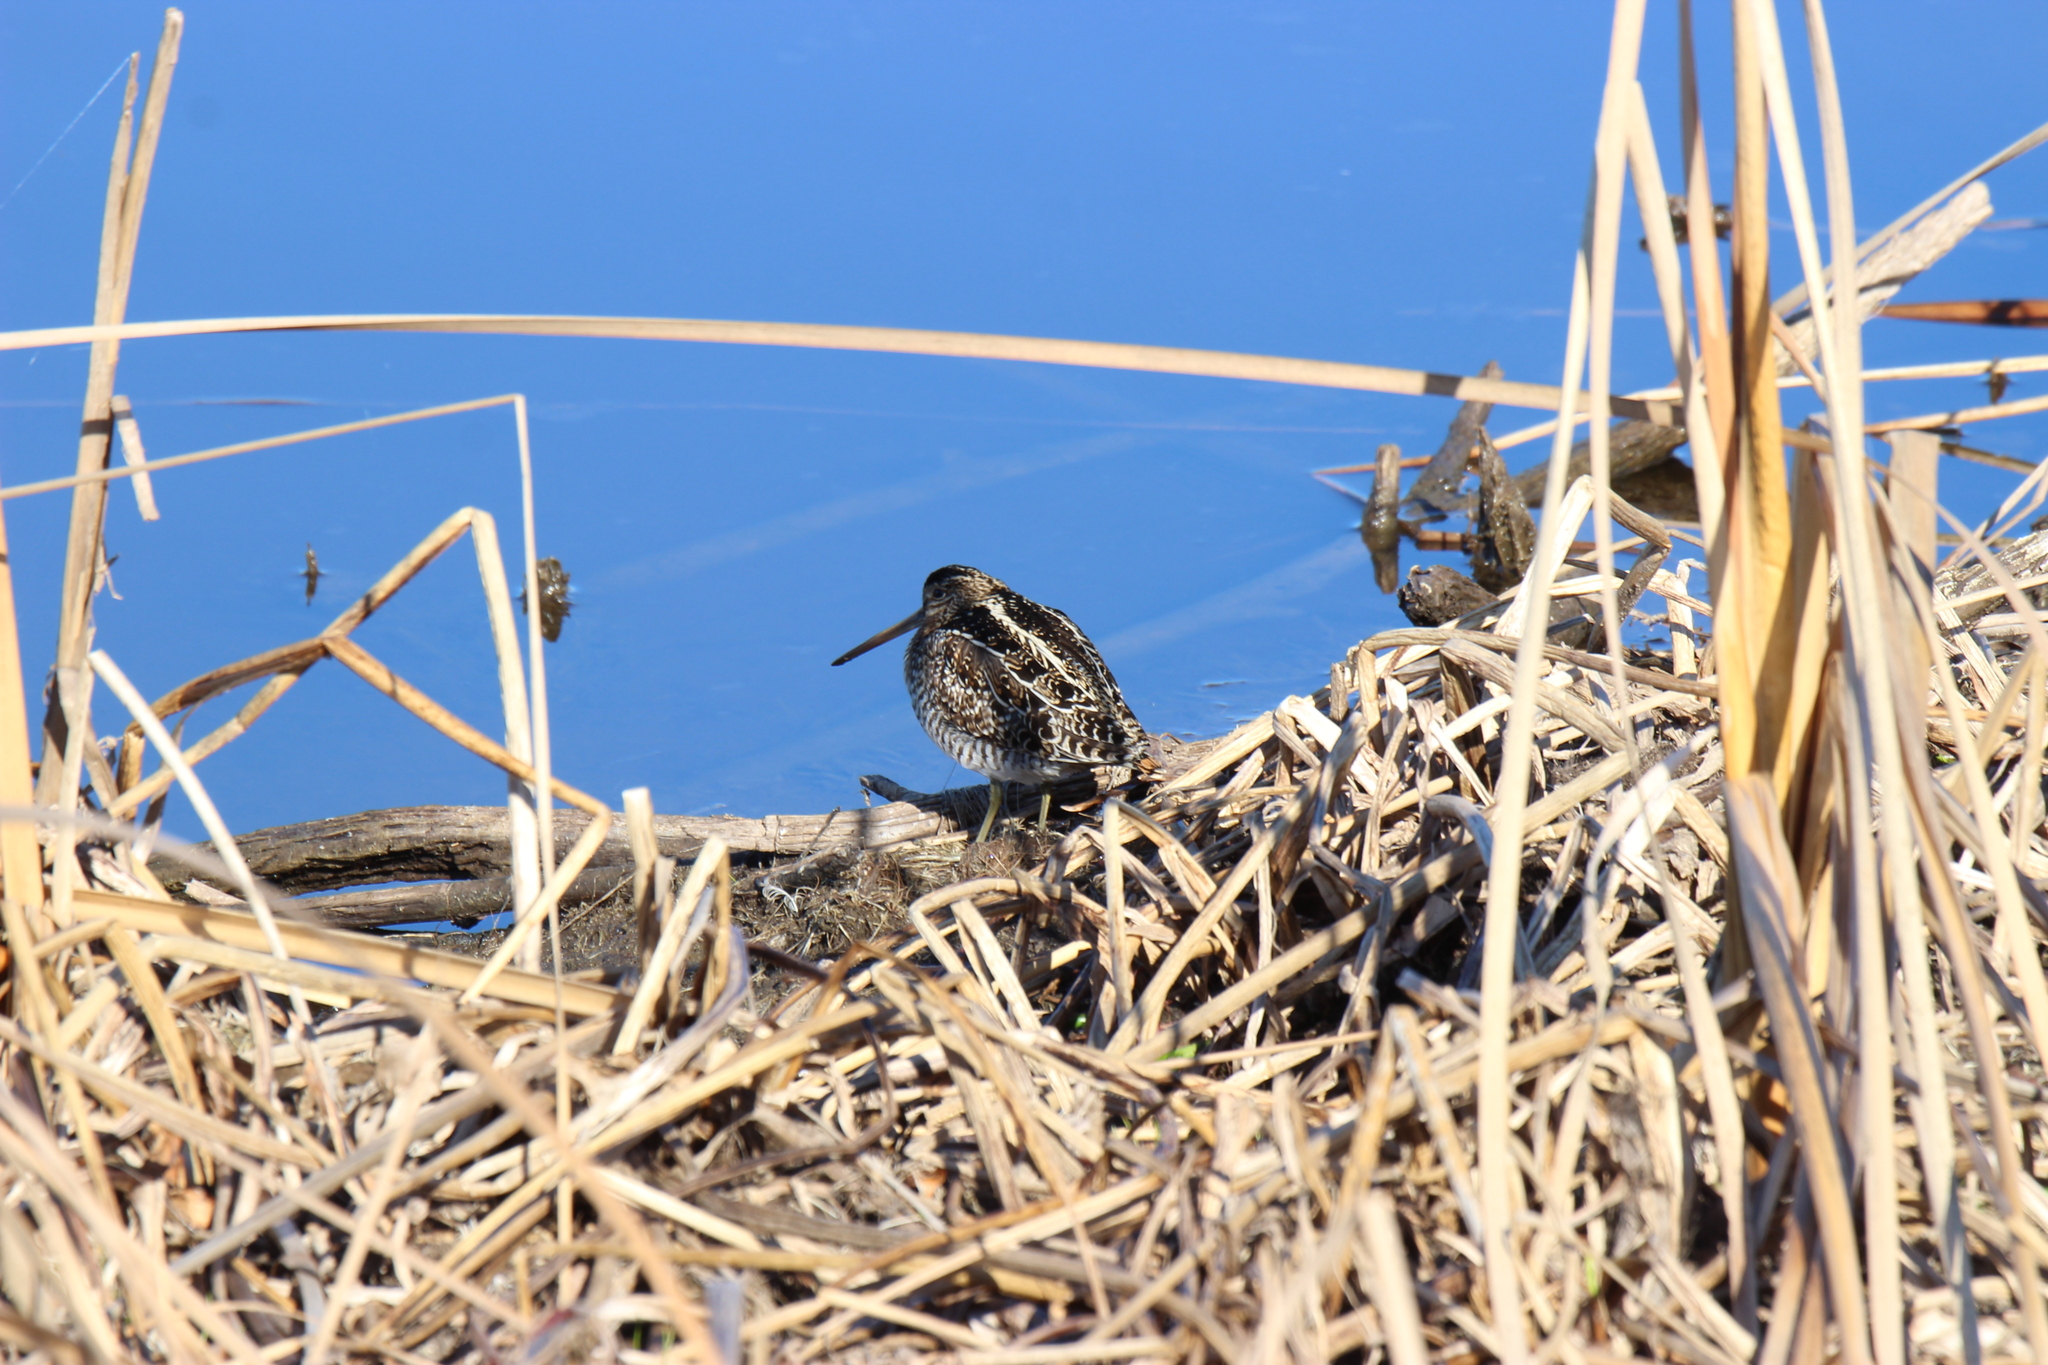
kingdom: Animalia
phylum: Chordata
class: Aves
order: Charadriiformes
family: Scolopacidae
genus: Gallinago
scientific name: Gallinago delicata
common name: Wilson's snipe
